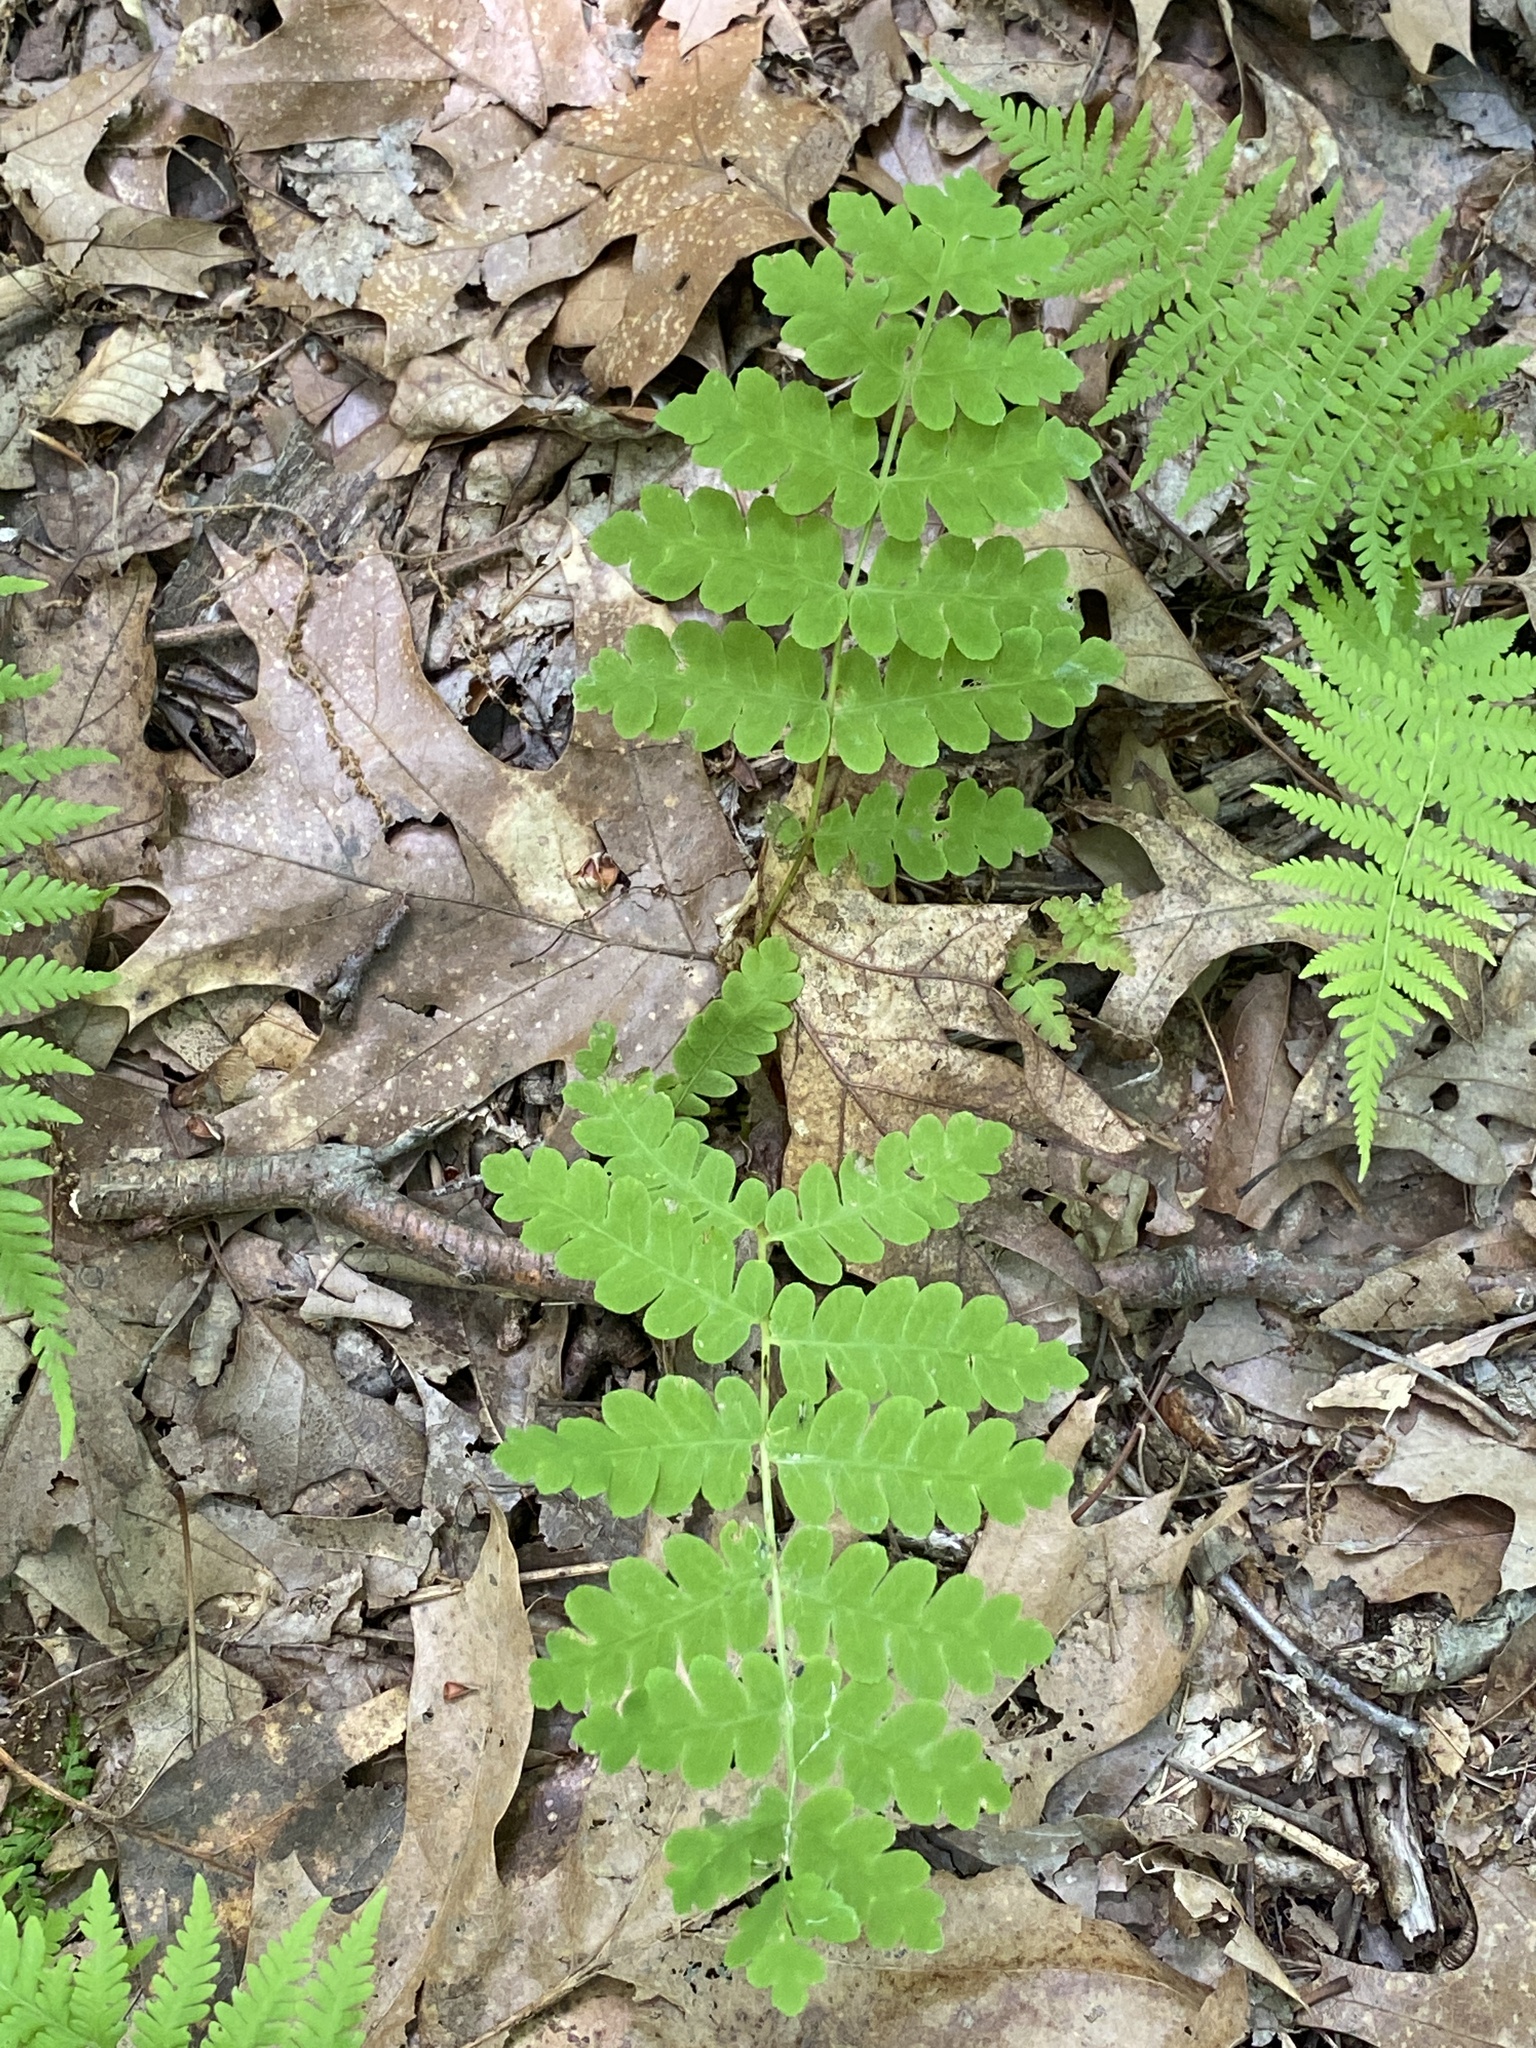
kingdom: Plantae
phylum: Tracheophyta
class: Polypodiopsida
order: Osmundales
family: Osmundaceae
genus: Claytosmunda
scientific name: Claytosmunda claytoniana
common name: Clayton's fern
